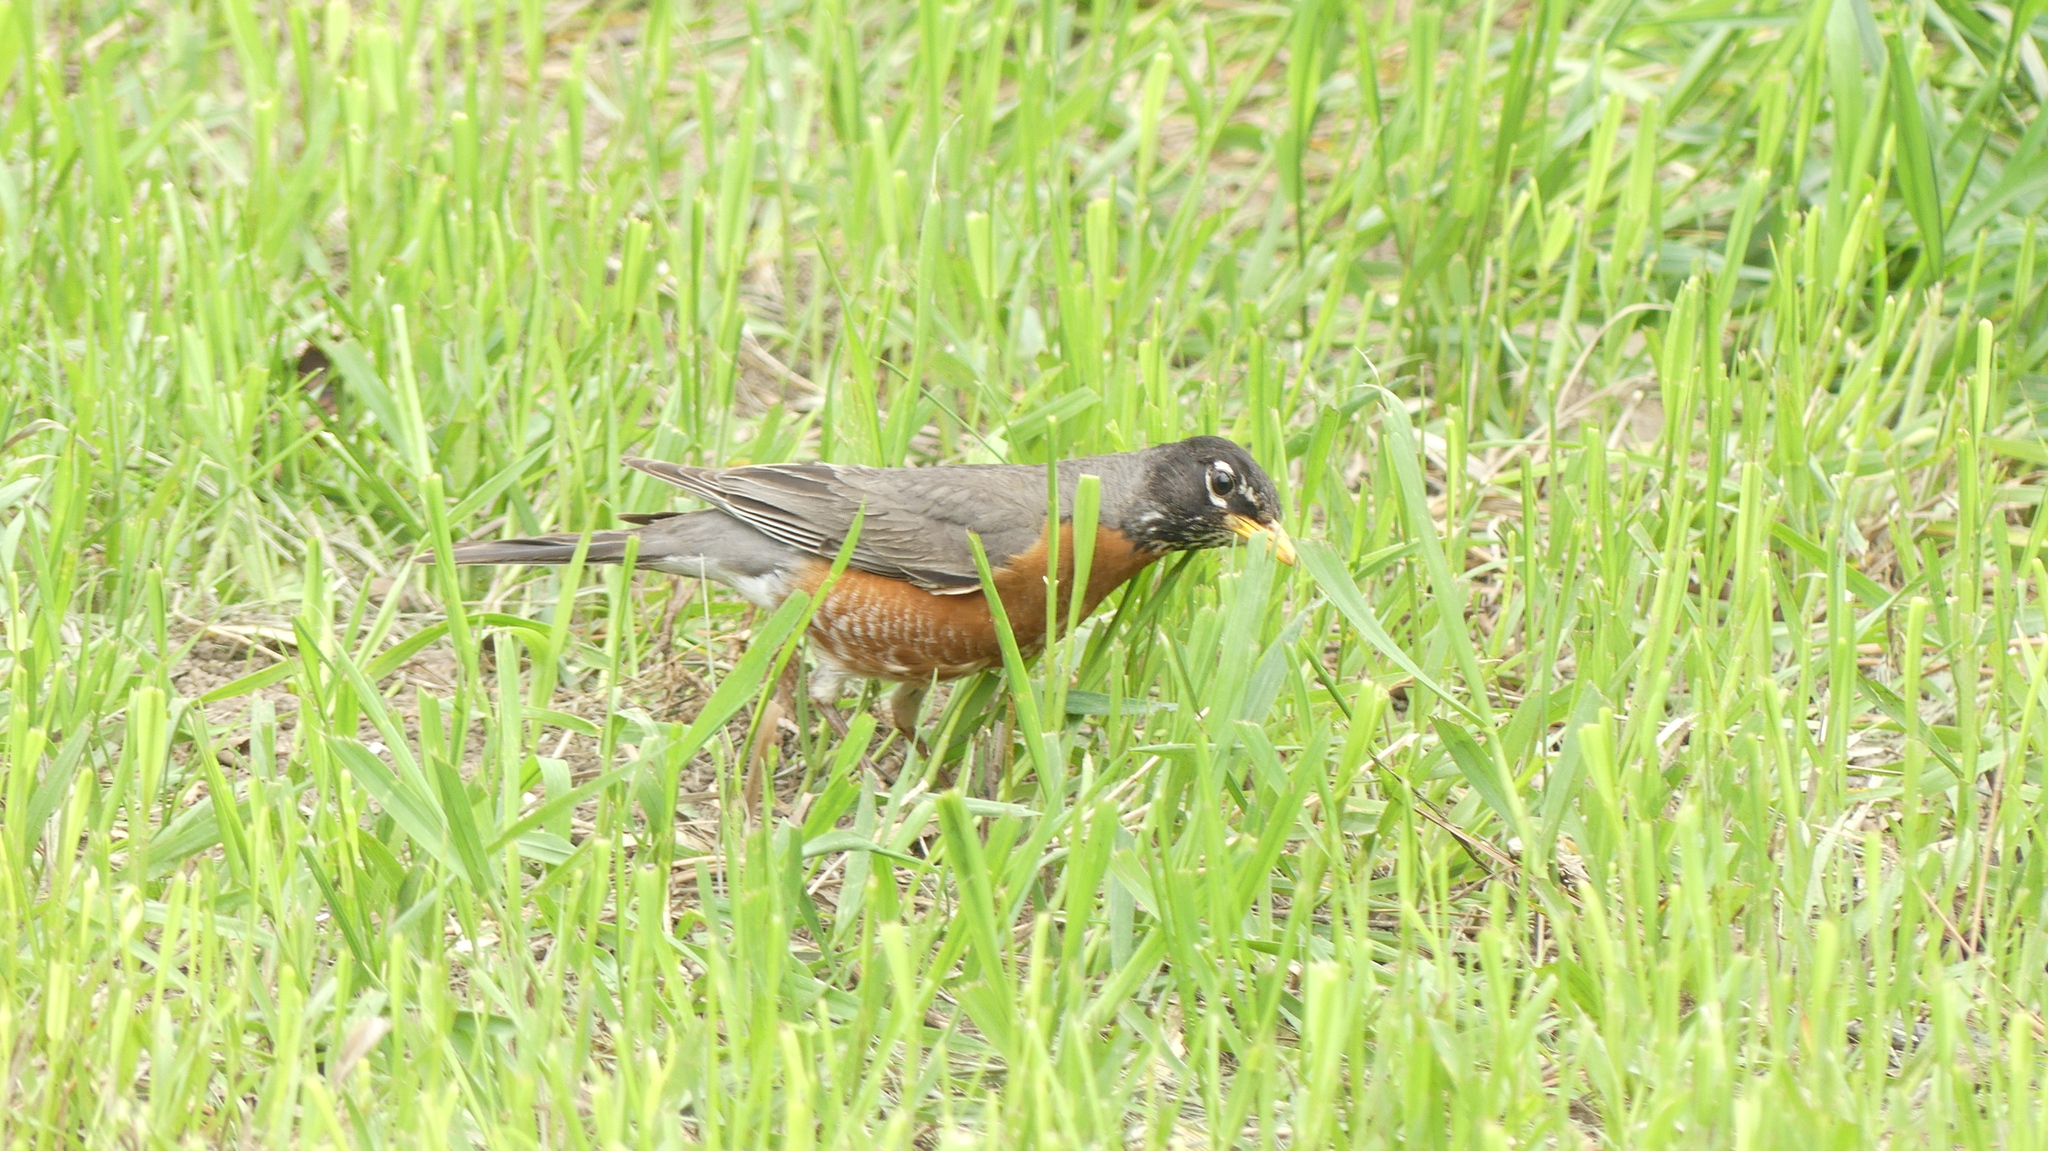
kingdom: Animalia
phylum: Chordata
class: Aves
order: Passeriformes
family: Turdidae
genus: Turdus
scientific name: Turdus migratorius
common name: American robin
